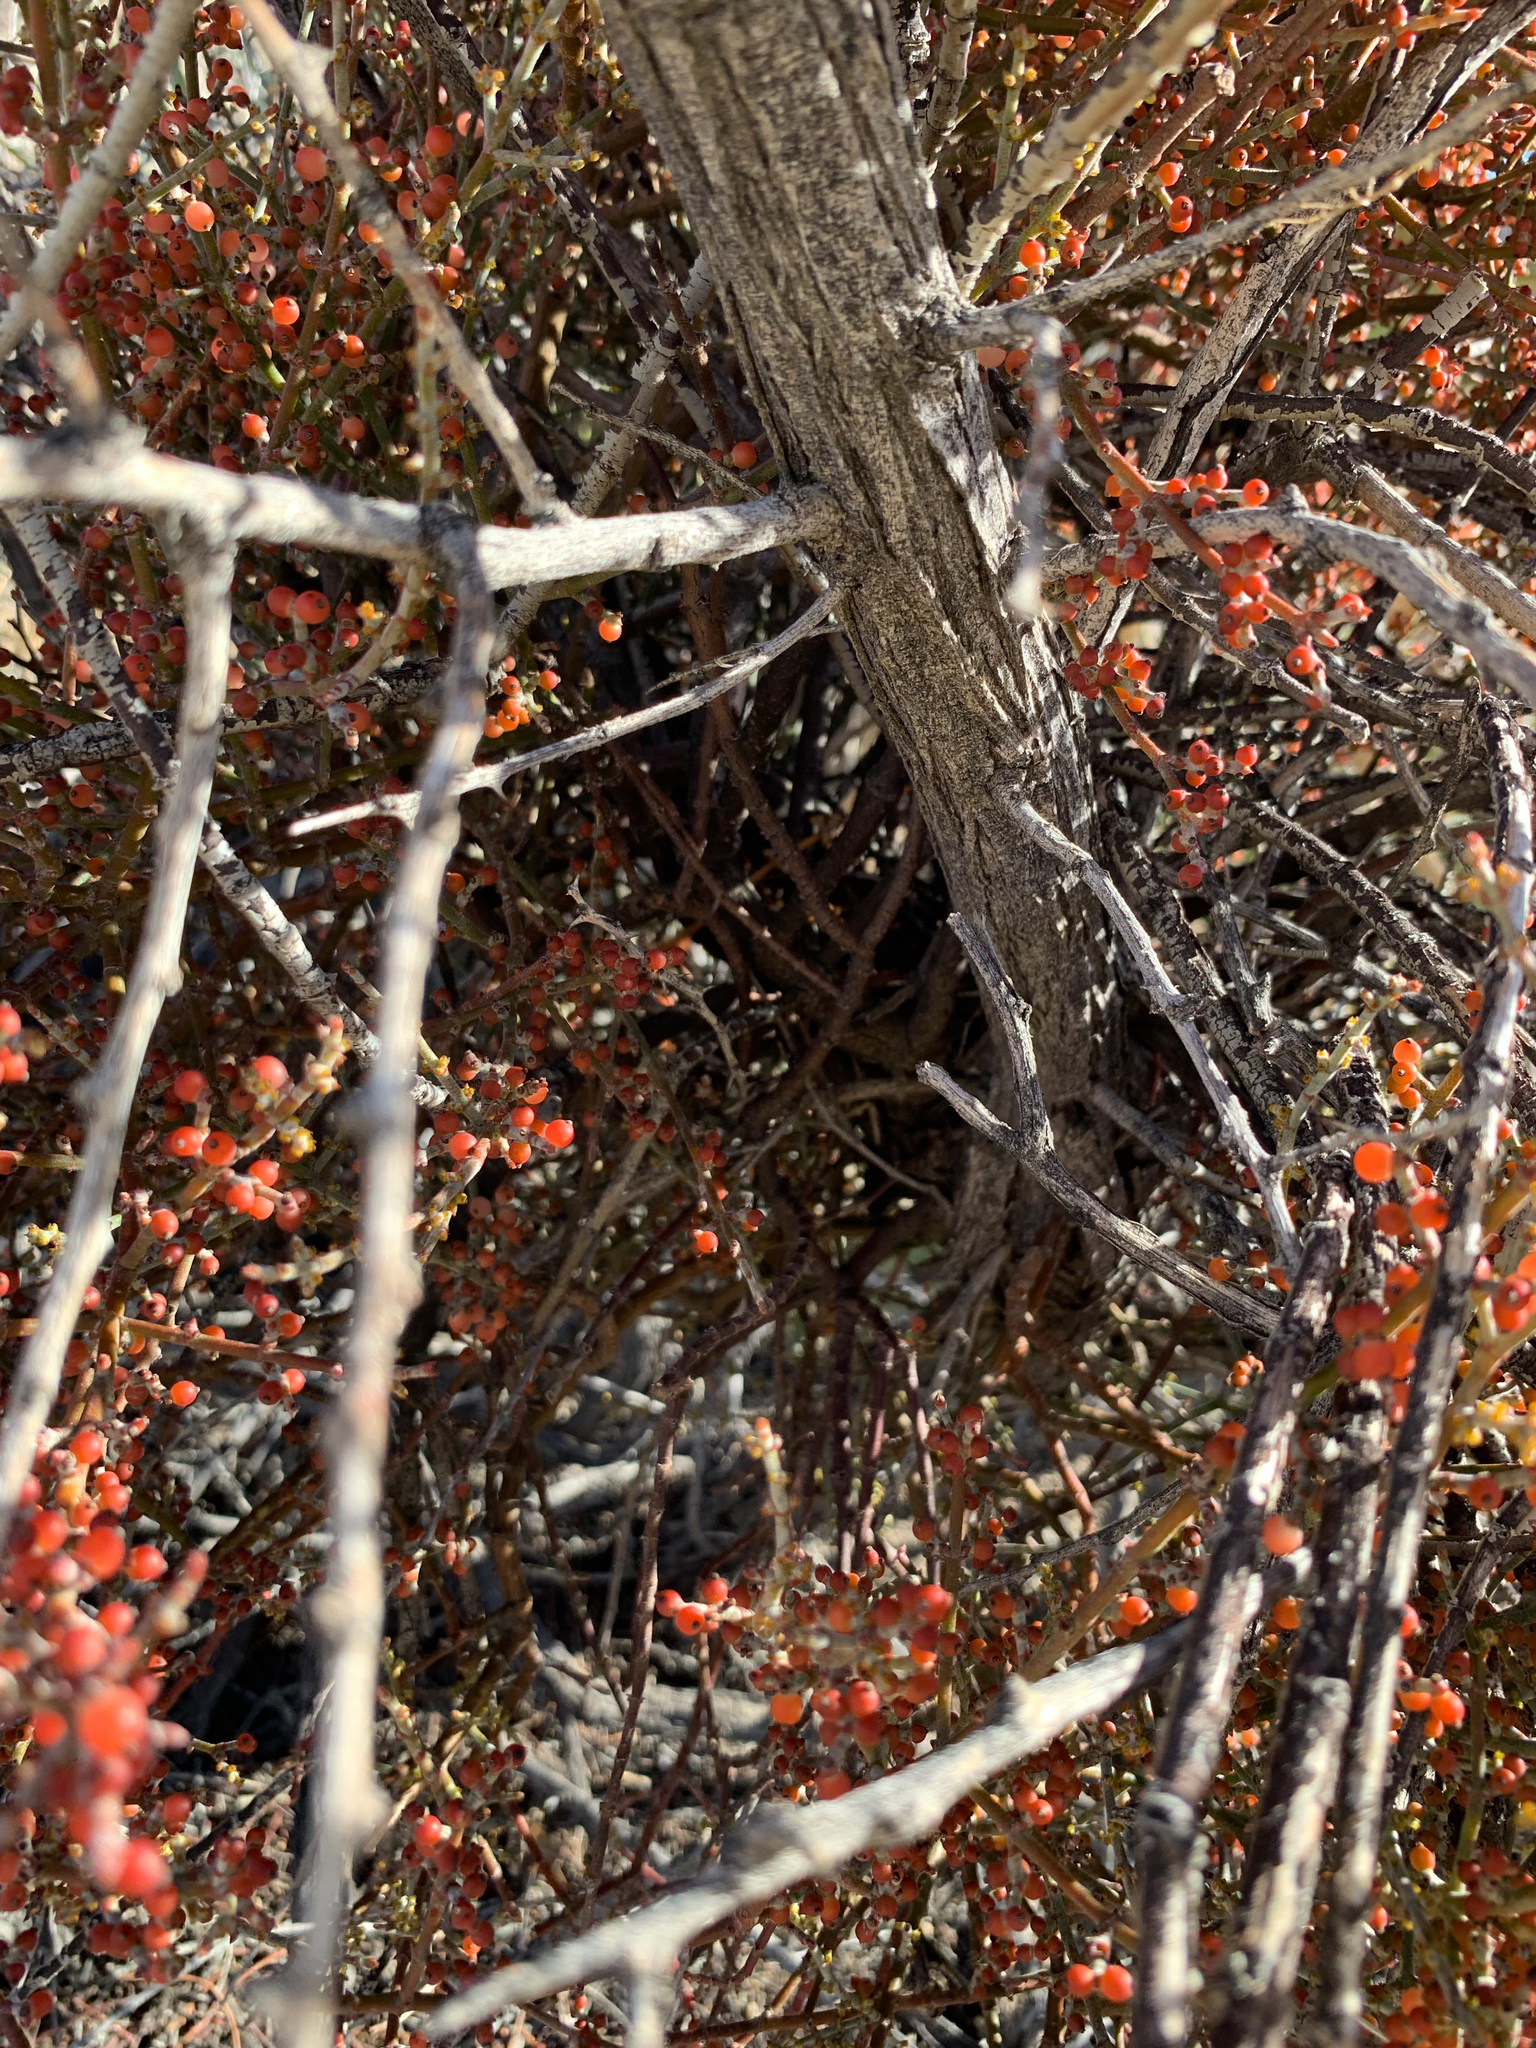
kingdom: Plantae
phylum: Tracheophyta
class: Magnoliopsida
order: Santalales
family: Viscaceae
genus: Phoradendron
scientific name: Phoradendron californicum
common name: Acacia mistletoe
